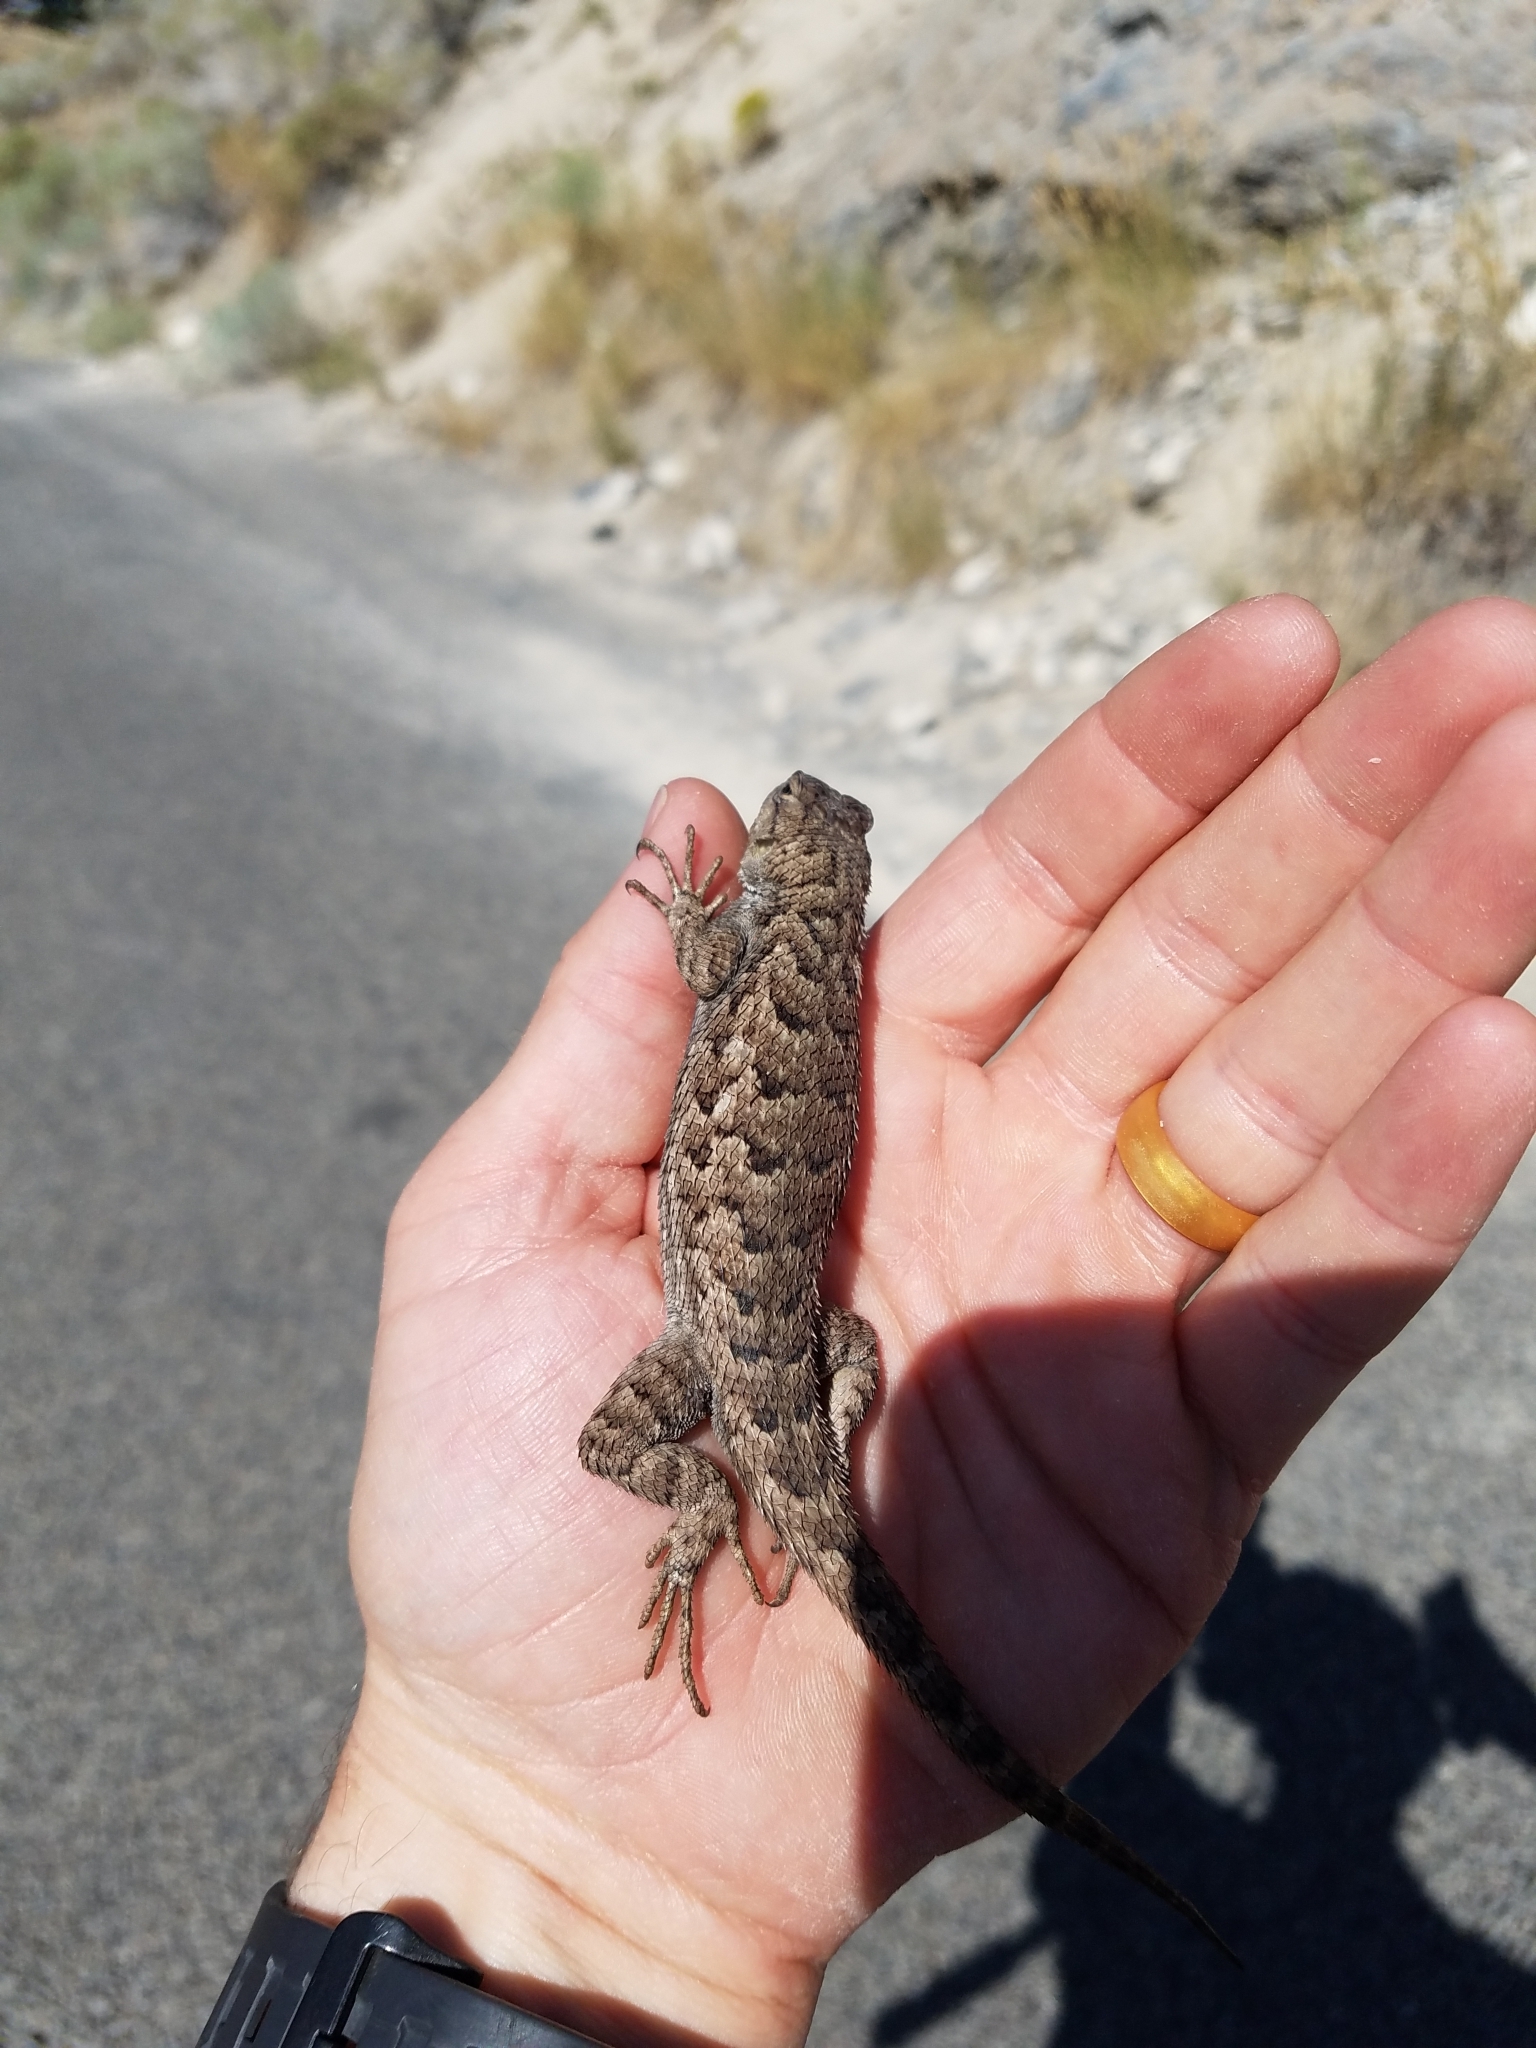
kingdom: Animalia
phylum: Chordata
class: Squamata
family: Phrynosomatidae
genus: Sceloporus
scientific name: Sceloporus occidentalis
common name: Western fence lizard
